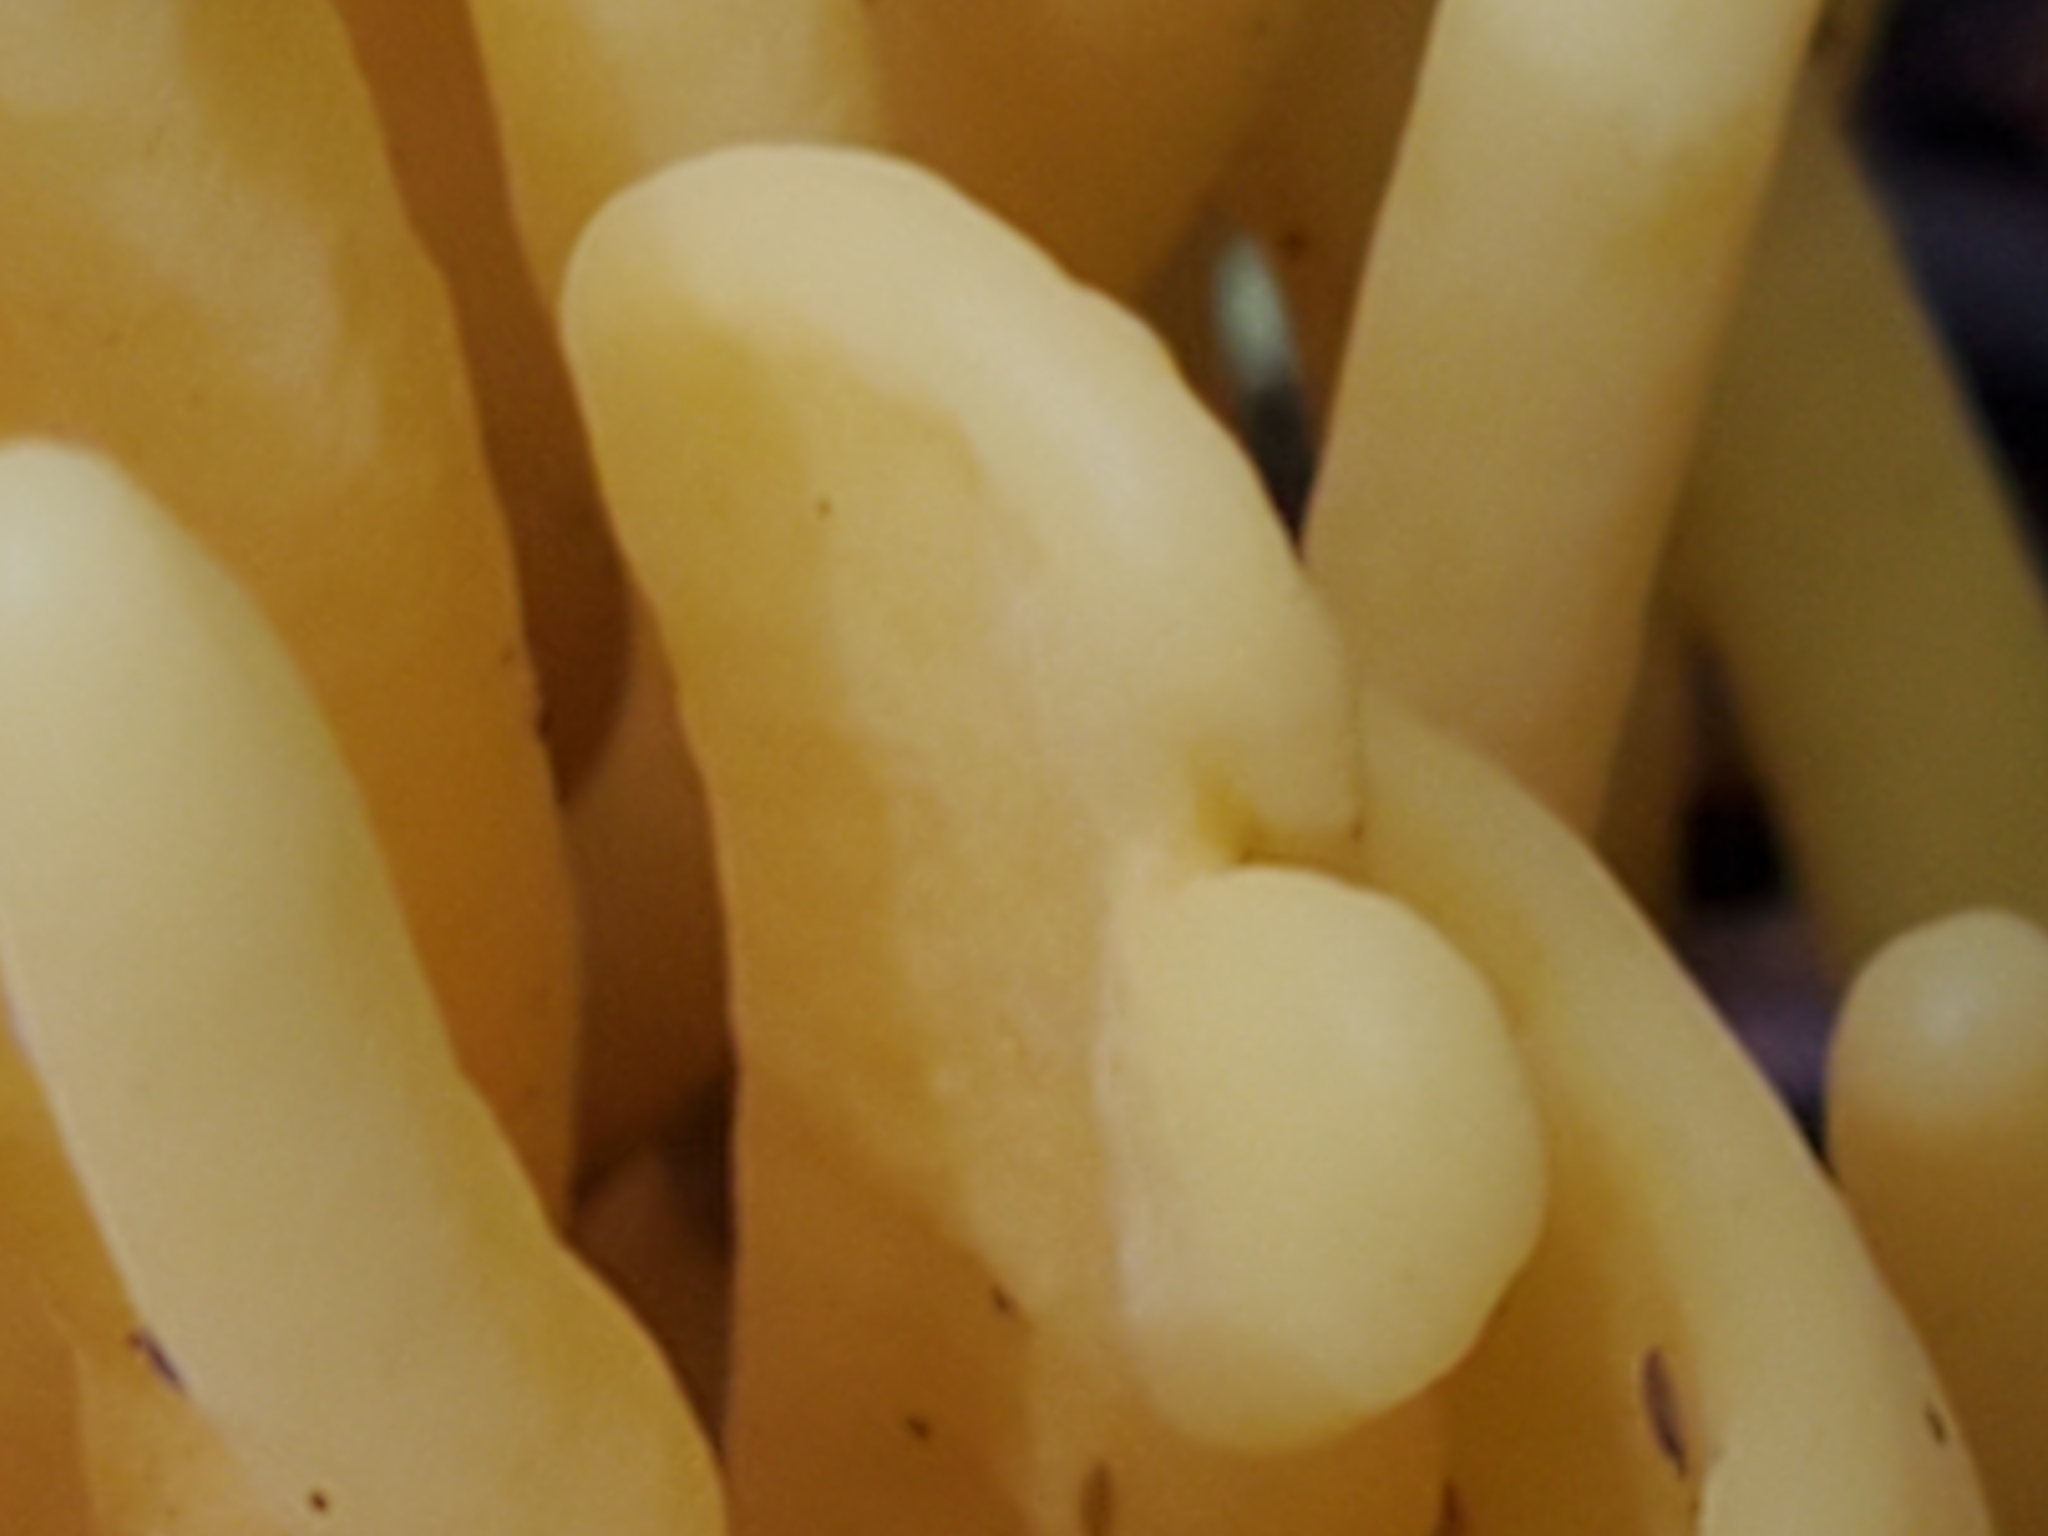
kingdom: Fungi
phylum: Basidiomycota
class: Agaricomycetes
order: Agaricales
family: Clavariaceae
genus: Clavulinopsis
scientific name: Clavulinopsis fusiformis
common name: Golden spindles
